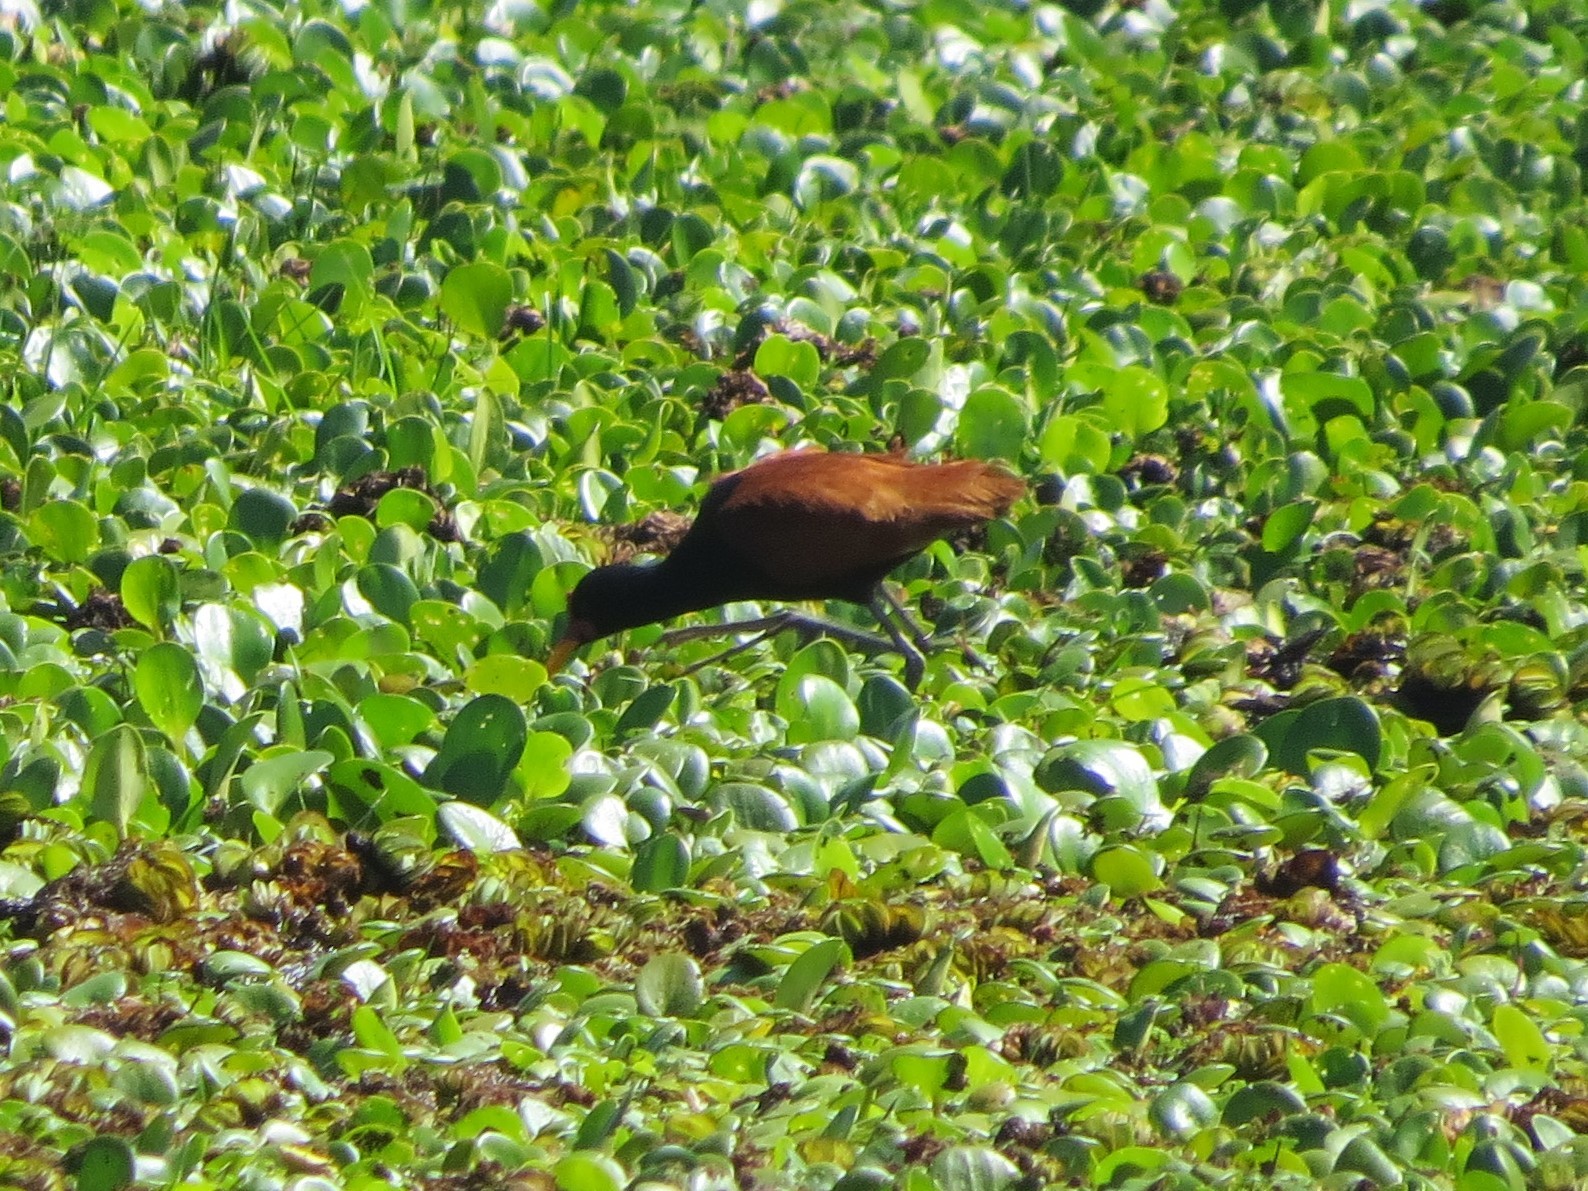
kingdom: Animalia
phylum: Chordata
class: Aves
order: Charadriiformes
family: Jacanidae
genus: Jacana
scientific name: Jacana jacana
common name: Wattled jacana
